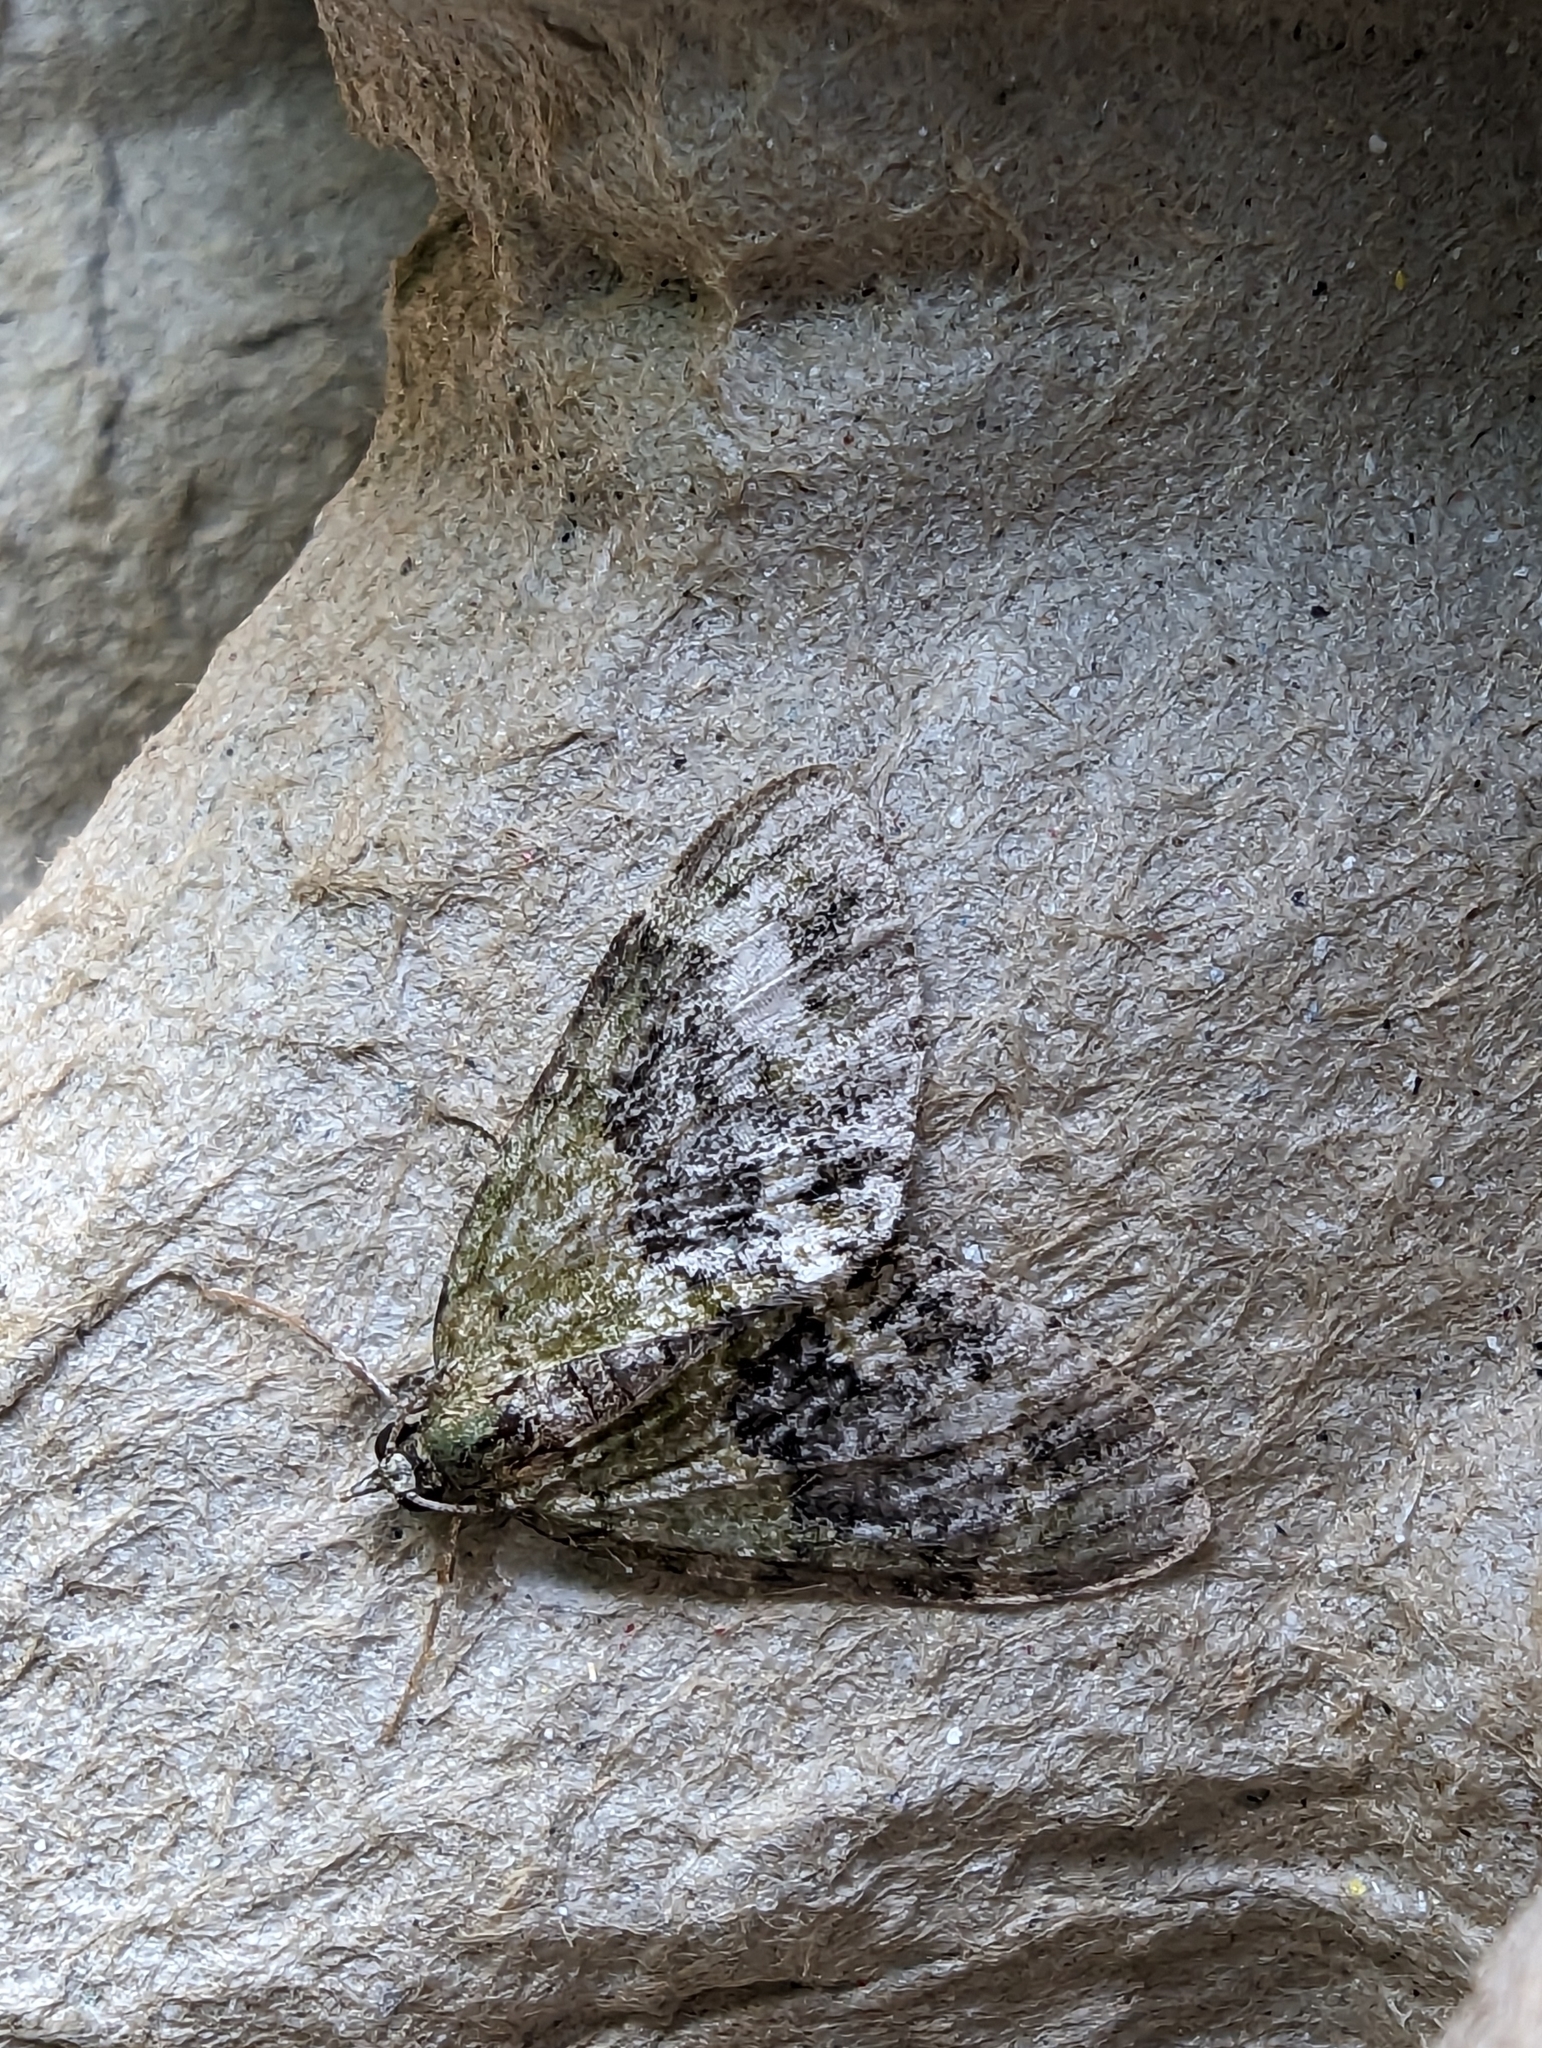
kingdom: Animalia
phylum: Arthropoda
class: Insecta
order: Lepidoptera
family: Geometridae
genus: Acasis
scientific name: Acasis viretata
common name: Yellow-barred brindle
